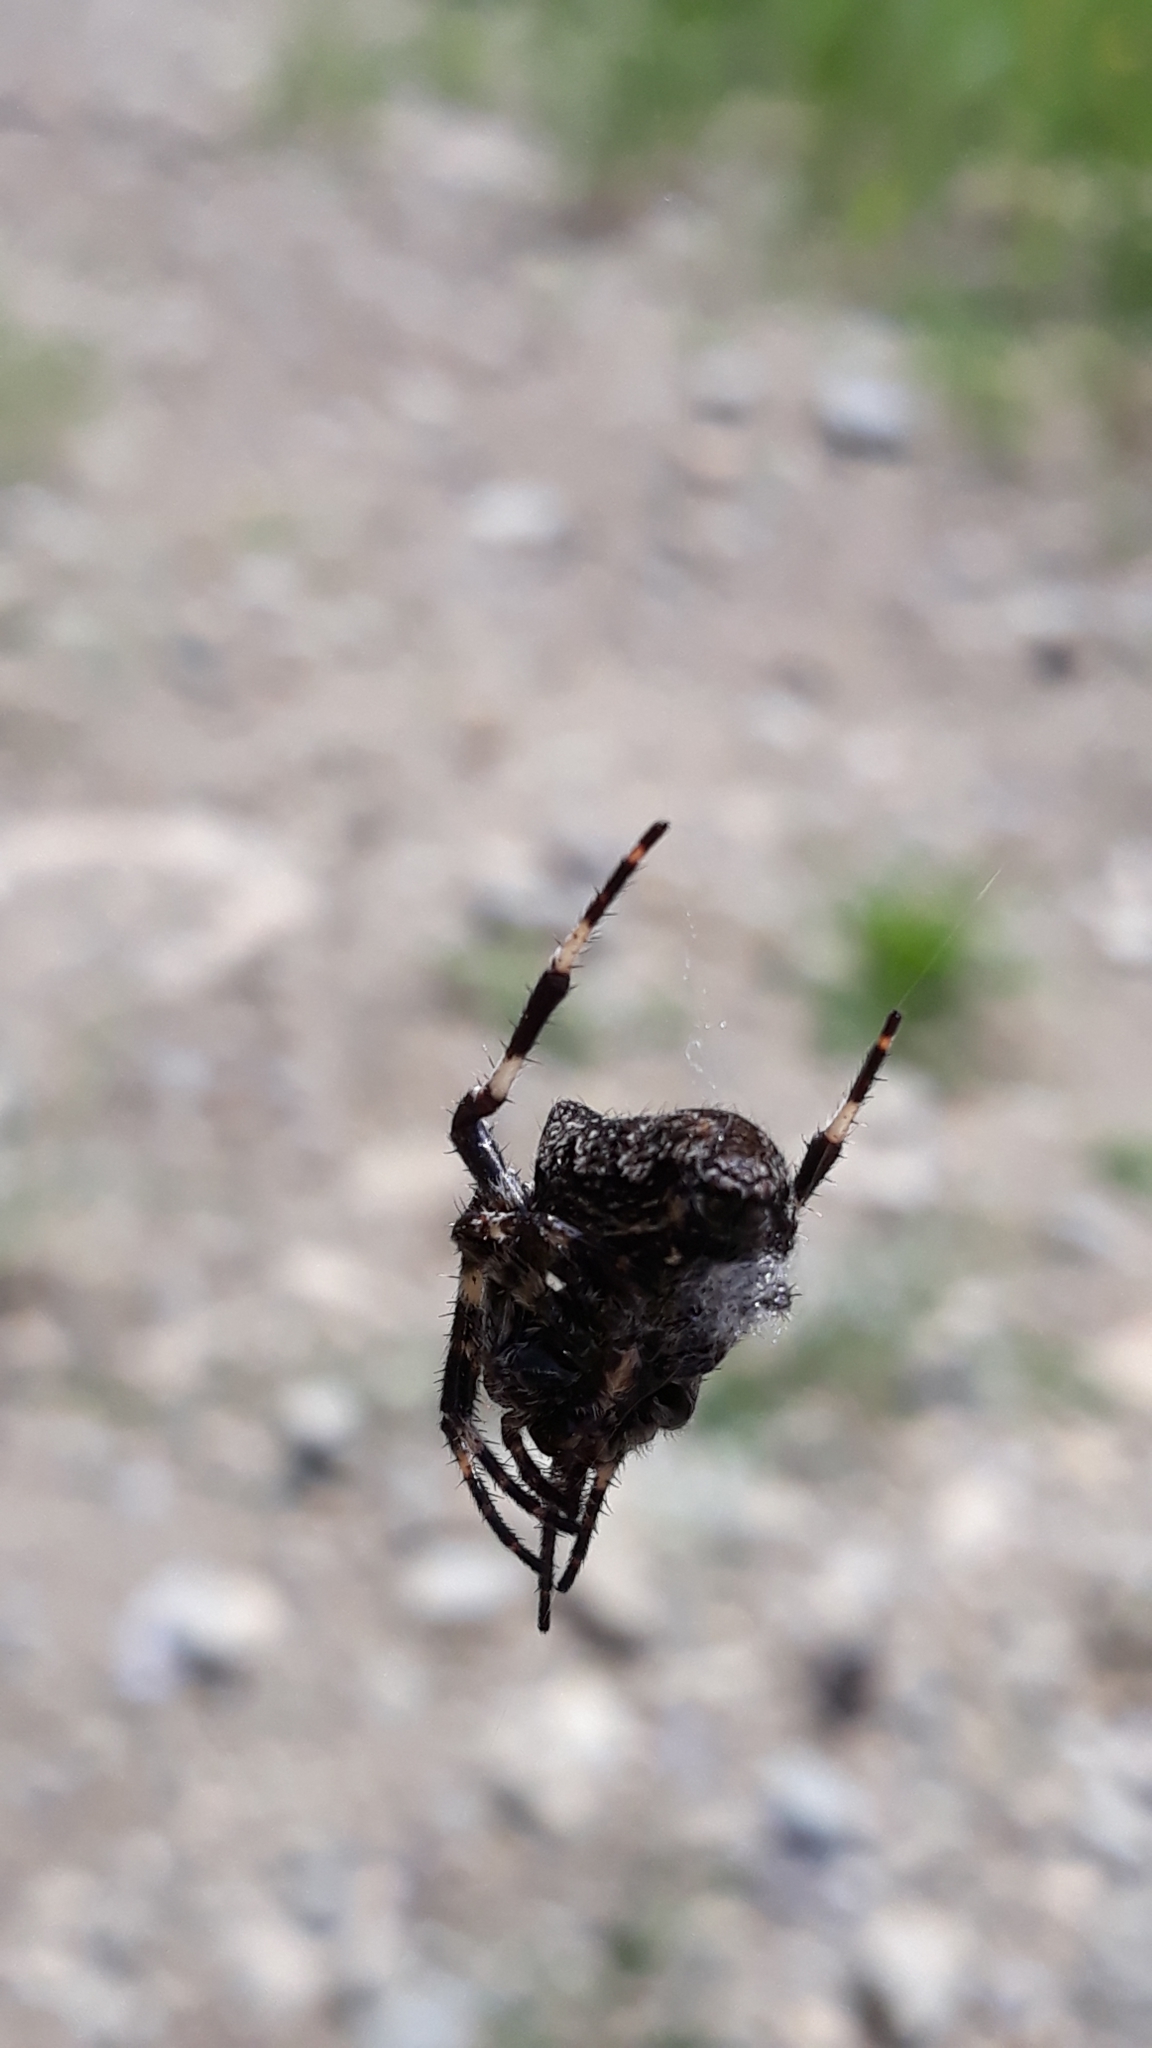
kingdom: Animalia
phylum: Arthropoda
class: Arachnida
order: Araneae
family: Araneidae
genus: Araneus
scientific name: Araneus angulatus
